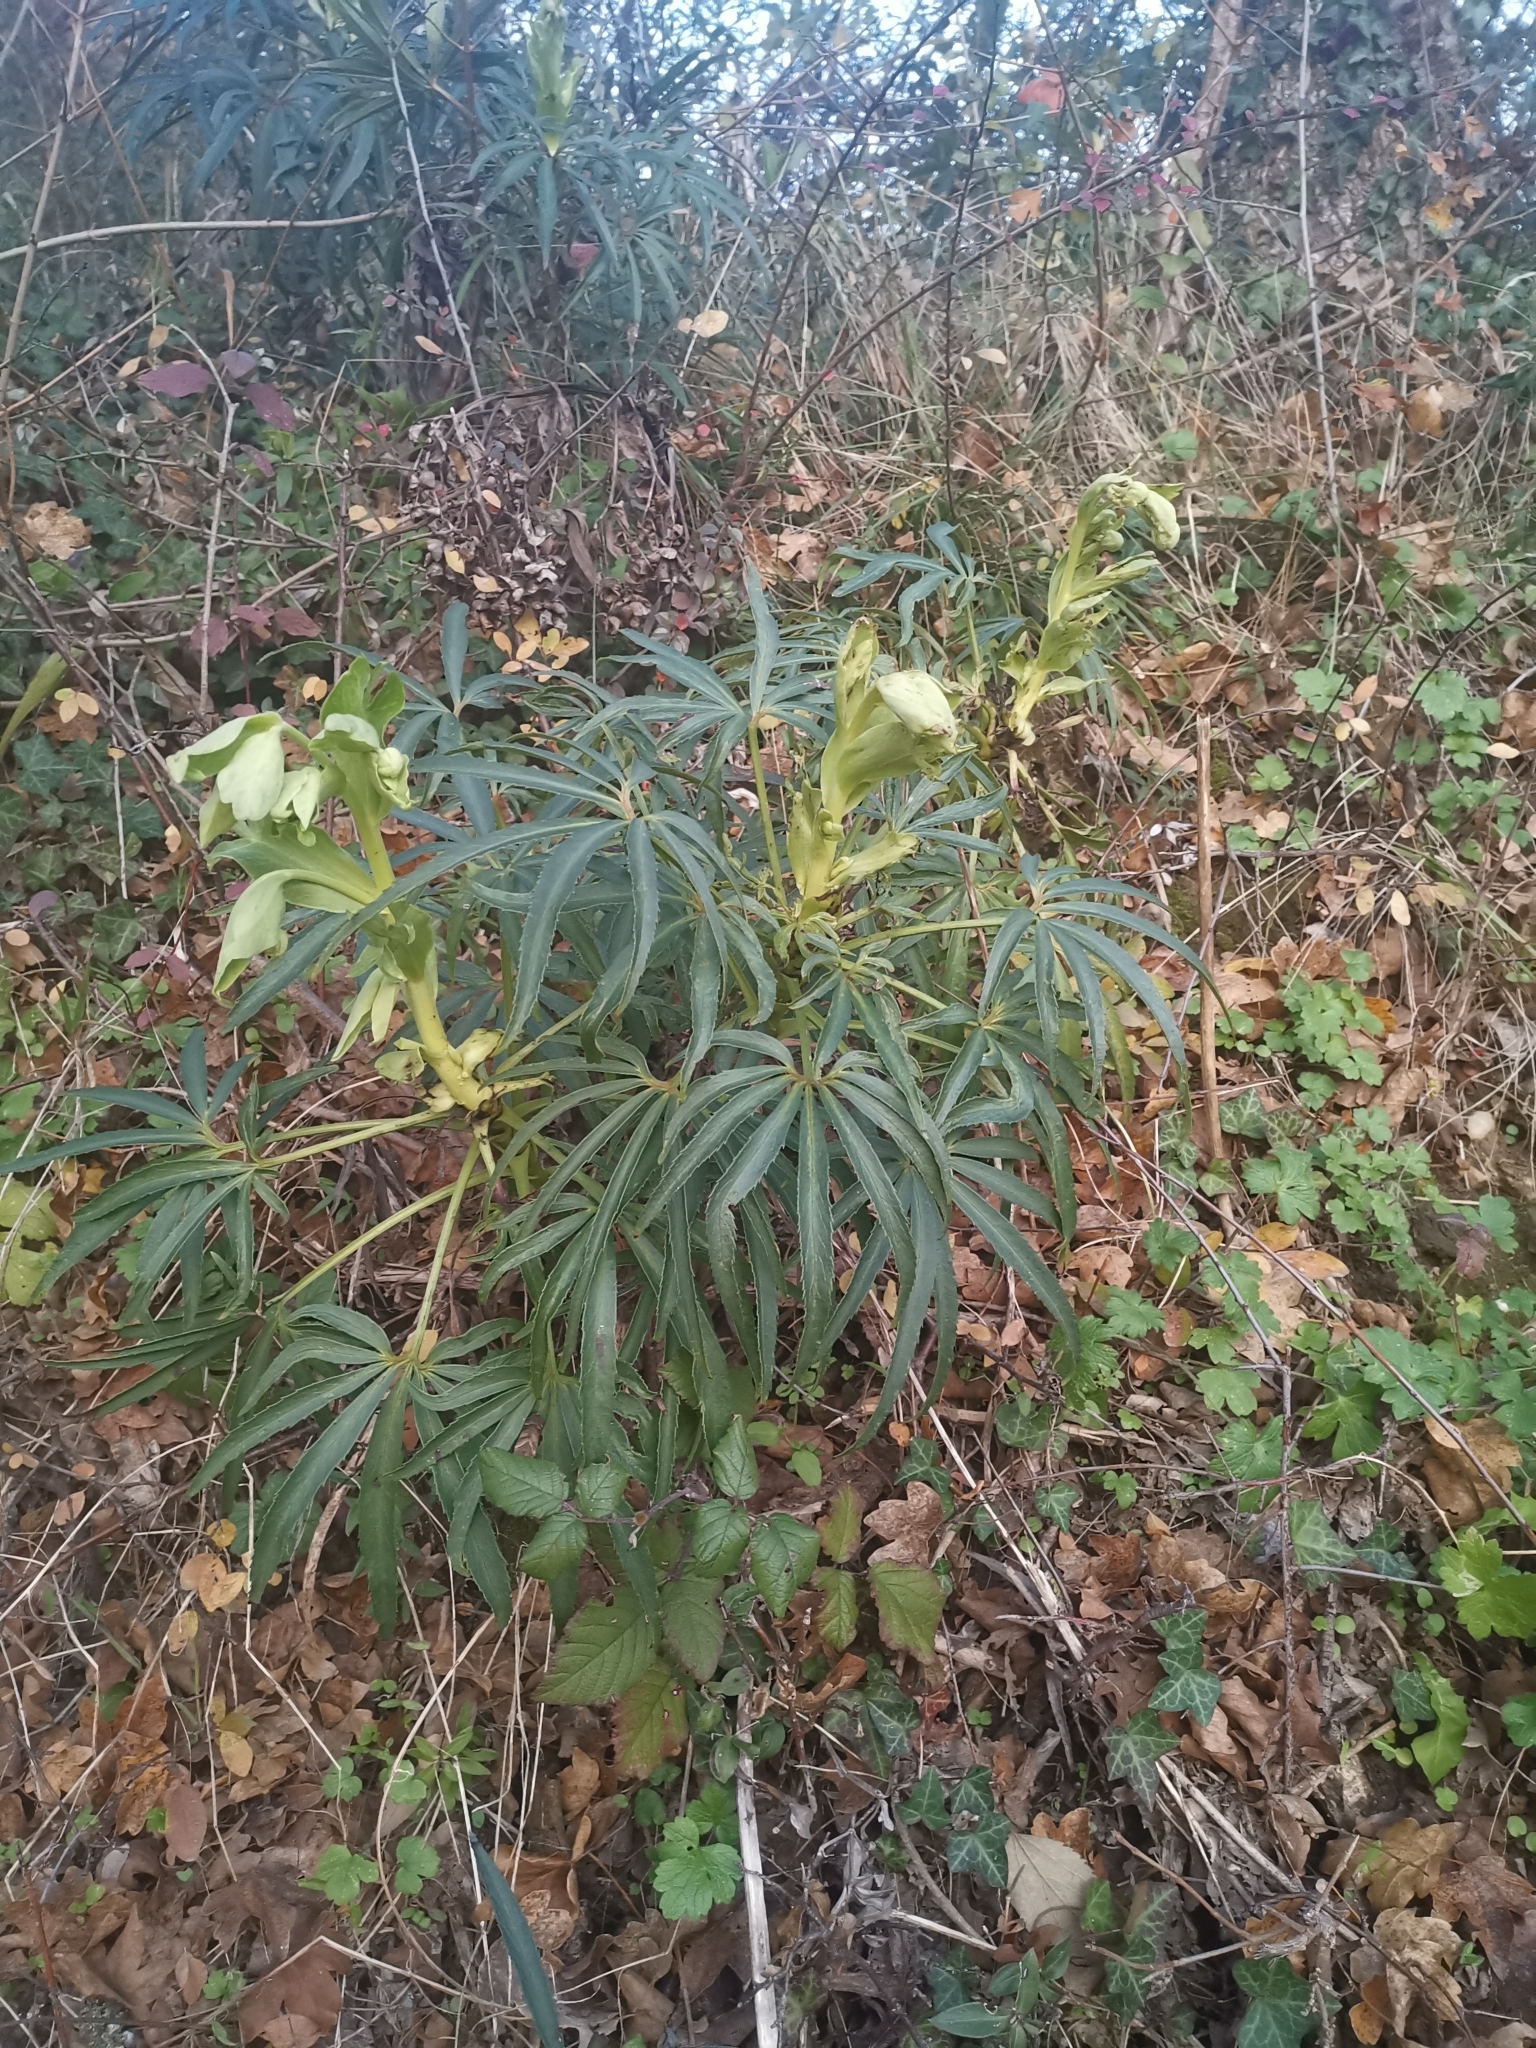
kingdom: Plantae
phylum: Tracheophyta
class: Magnoliopsida
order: Ranunculales
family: Ranunculaceae
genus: Helleborus
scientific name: Helleborus foetidus
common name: Stinking hellebore
